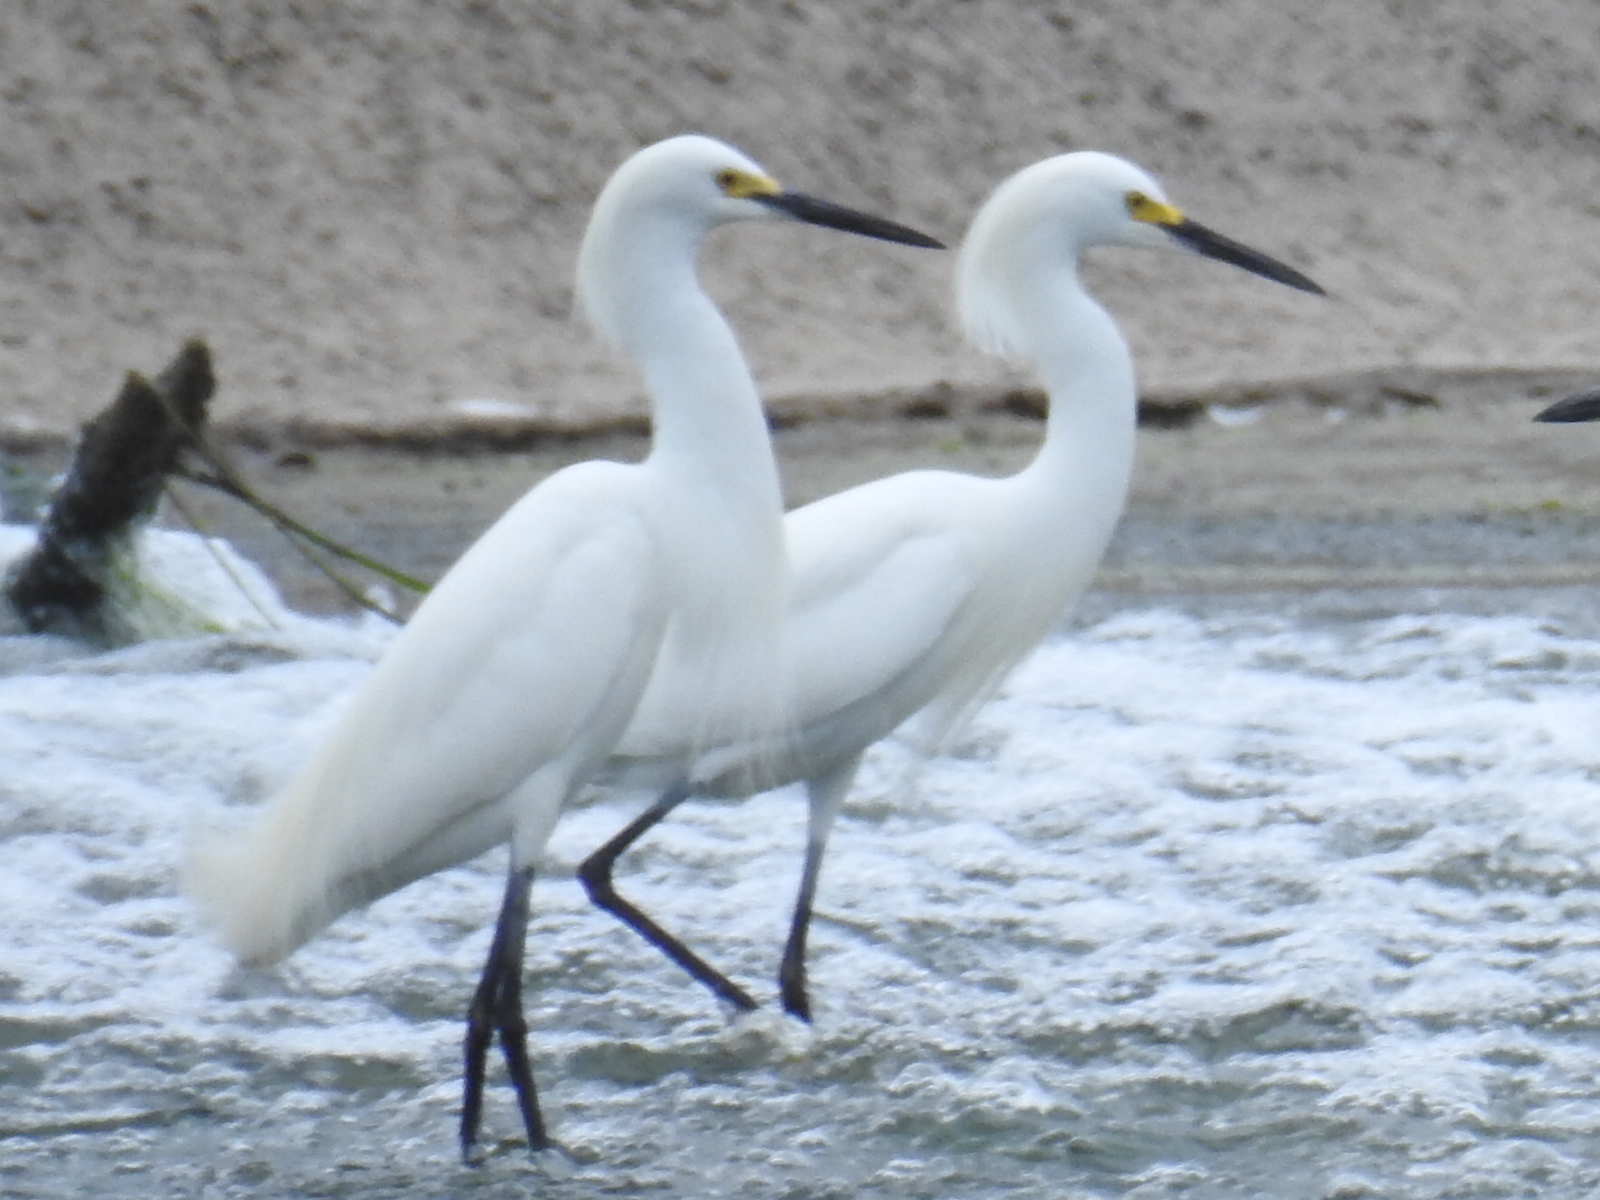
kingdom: Animalia
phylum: Chordata
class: Aves
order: Pelecaniformes
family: Ardeidae
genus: Egretta
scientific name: Egretta thula
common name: Snowy egret
